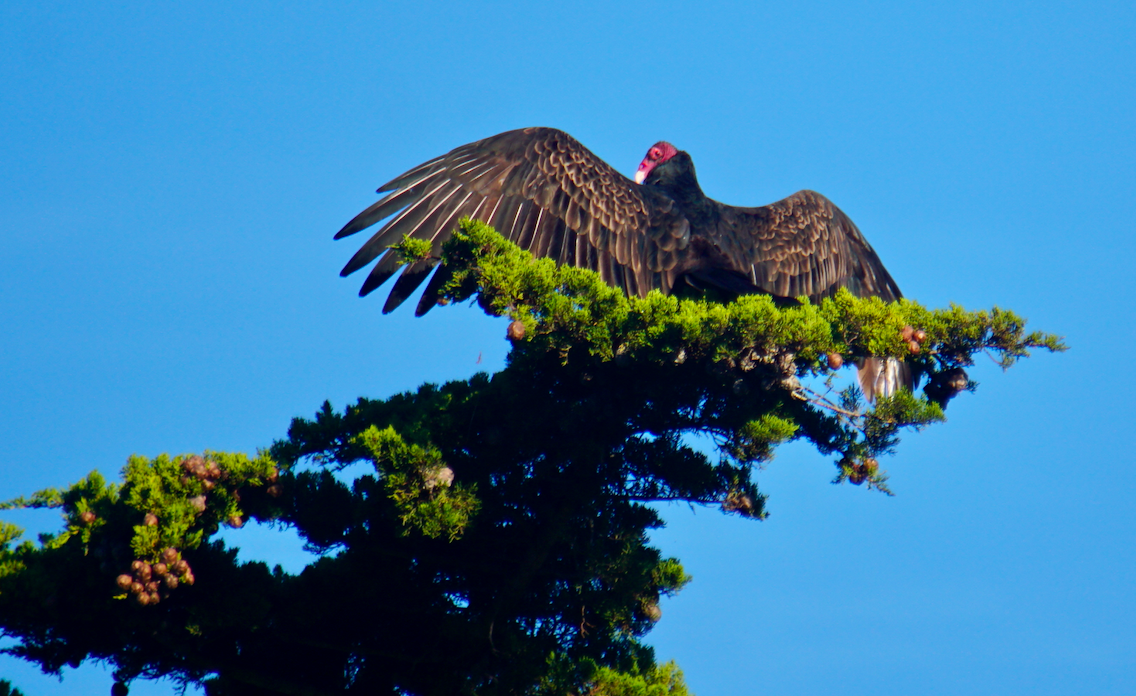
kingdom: Animalia
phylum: Chordata
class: Aves
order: Accipitriformes
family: Cathartidae
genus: Cathartes
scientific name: Cathartes aura
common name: Turkey vulture
